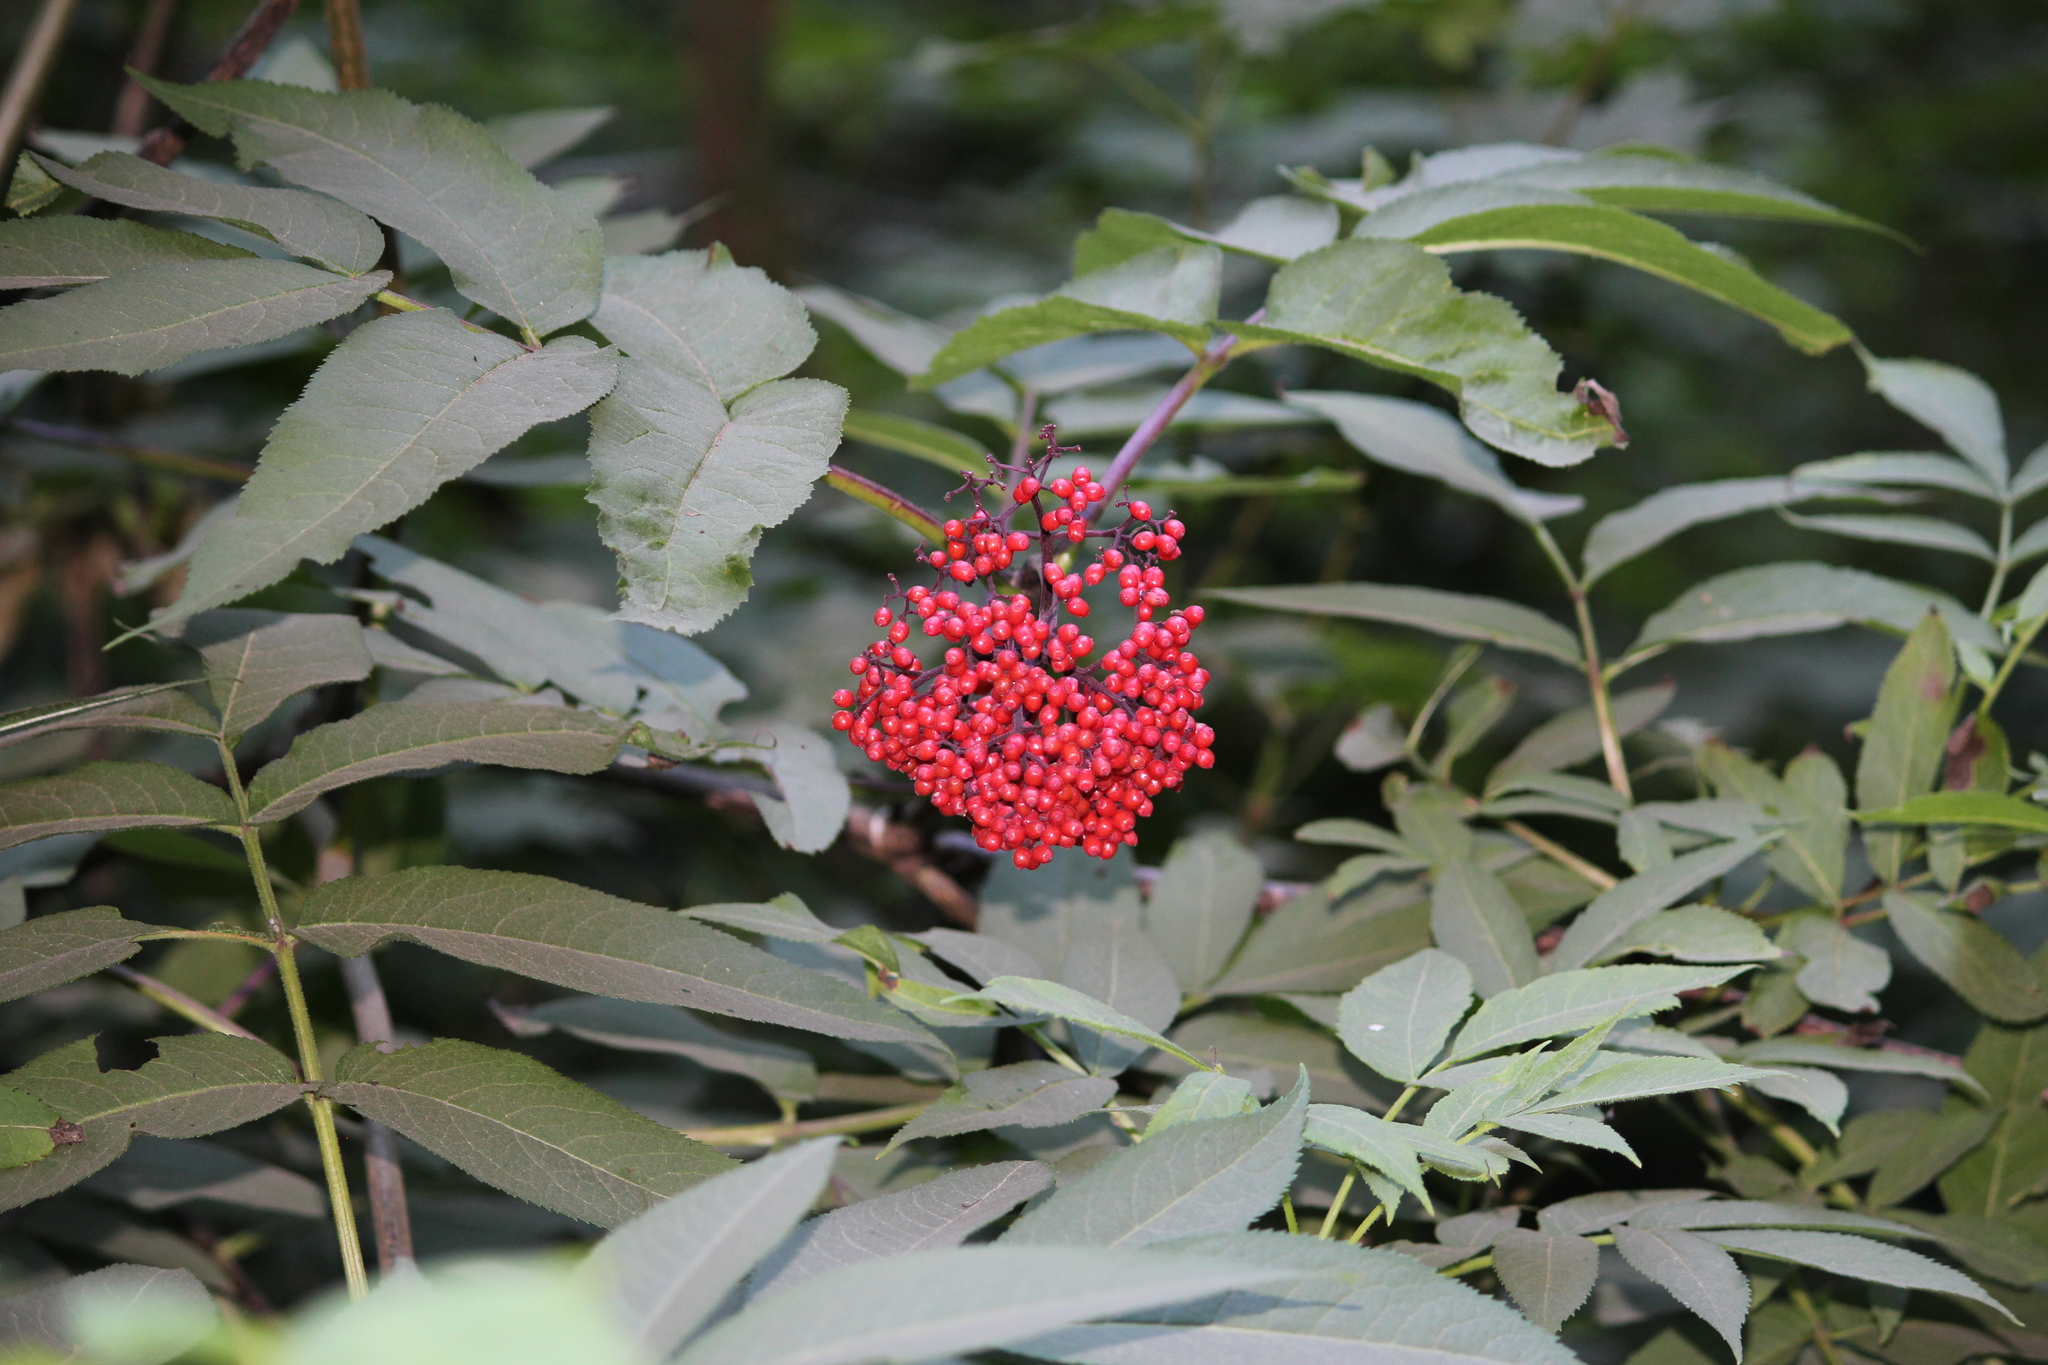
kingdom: Plantae
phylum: Tracheophyta
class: Magnoliopsida
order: Dipsacales
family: Viburnaceae
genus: Sambucus
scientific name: Sambucus racemosa
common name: Red-berried elder
